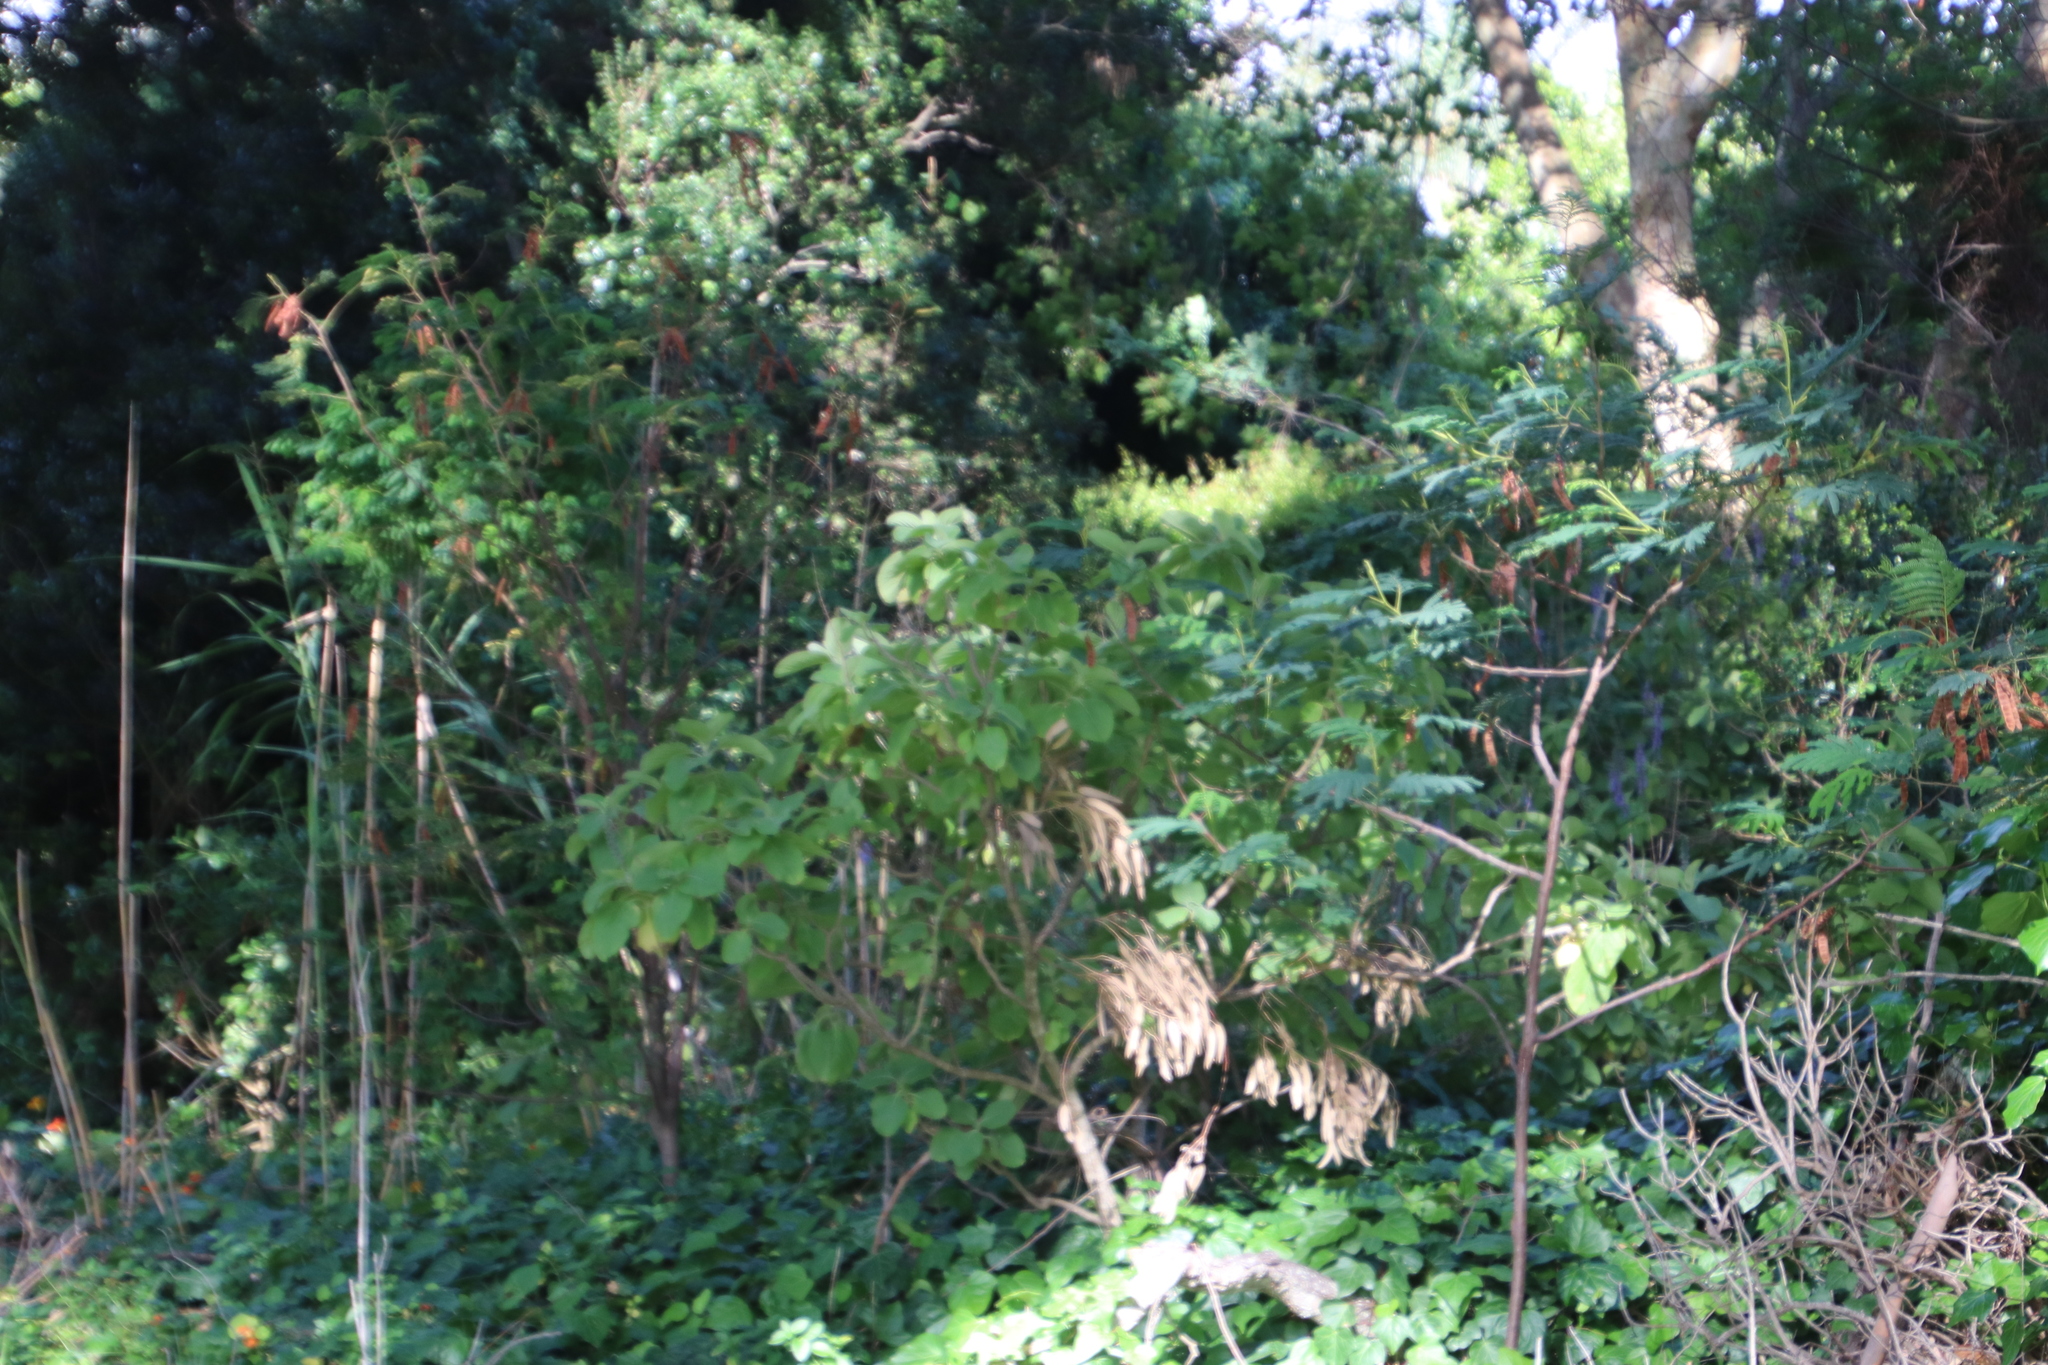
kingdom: Plantae
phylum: Tracheophyta
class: Magnoliopsida
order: Lamiales
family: Lamiaceae
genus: Coleus
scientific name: Coleus barbatus
